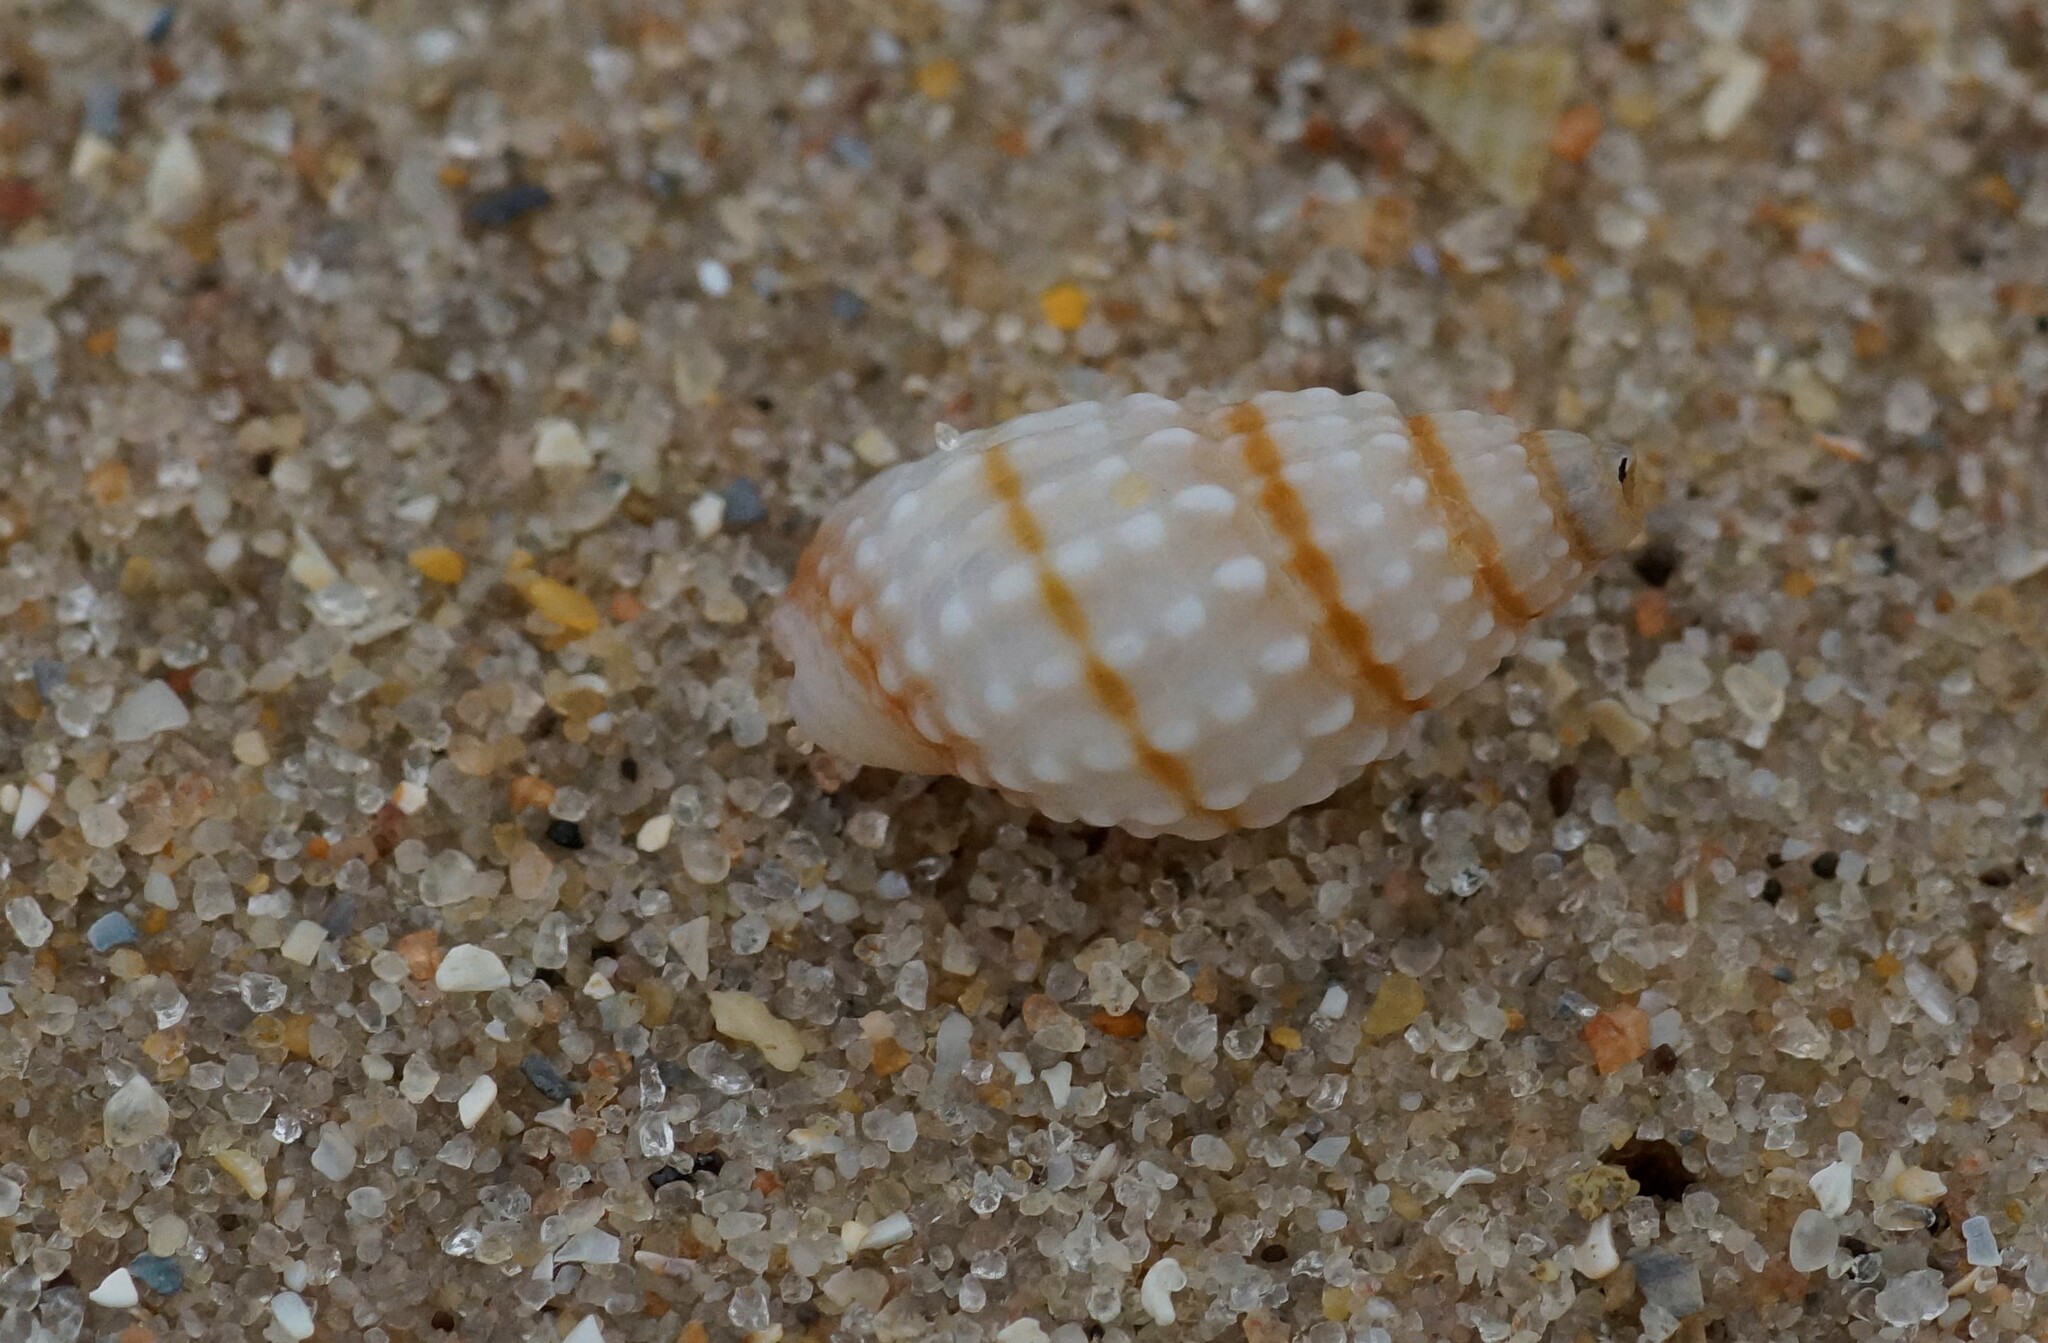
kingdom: Animalia
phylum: Mollusca
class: Gastropoda
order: Neogastropoda
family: Nassariidae
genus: Nassarius
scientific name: Nassarius pyrrhus
